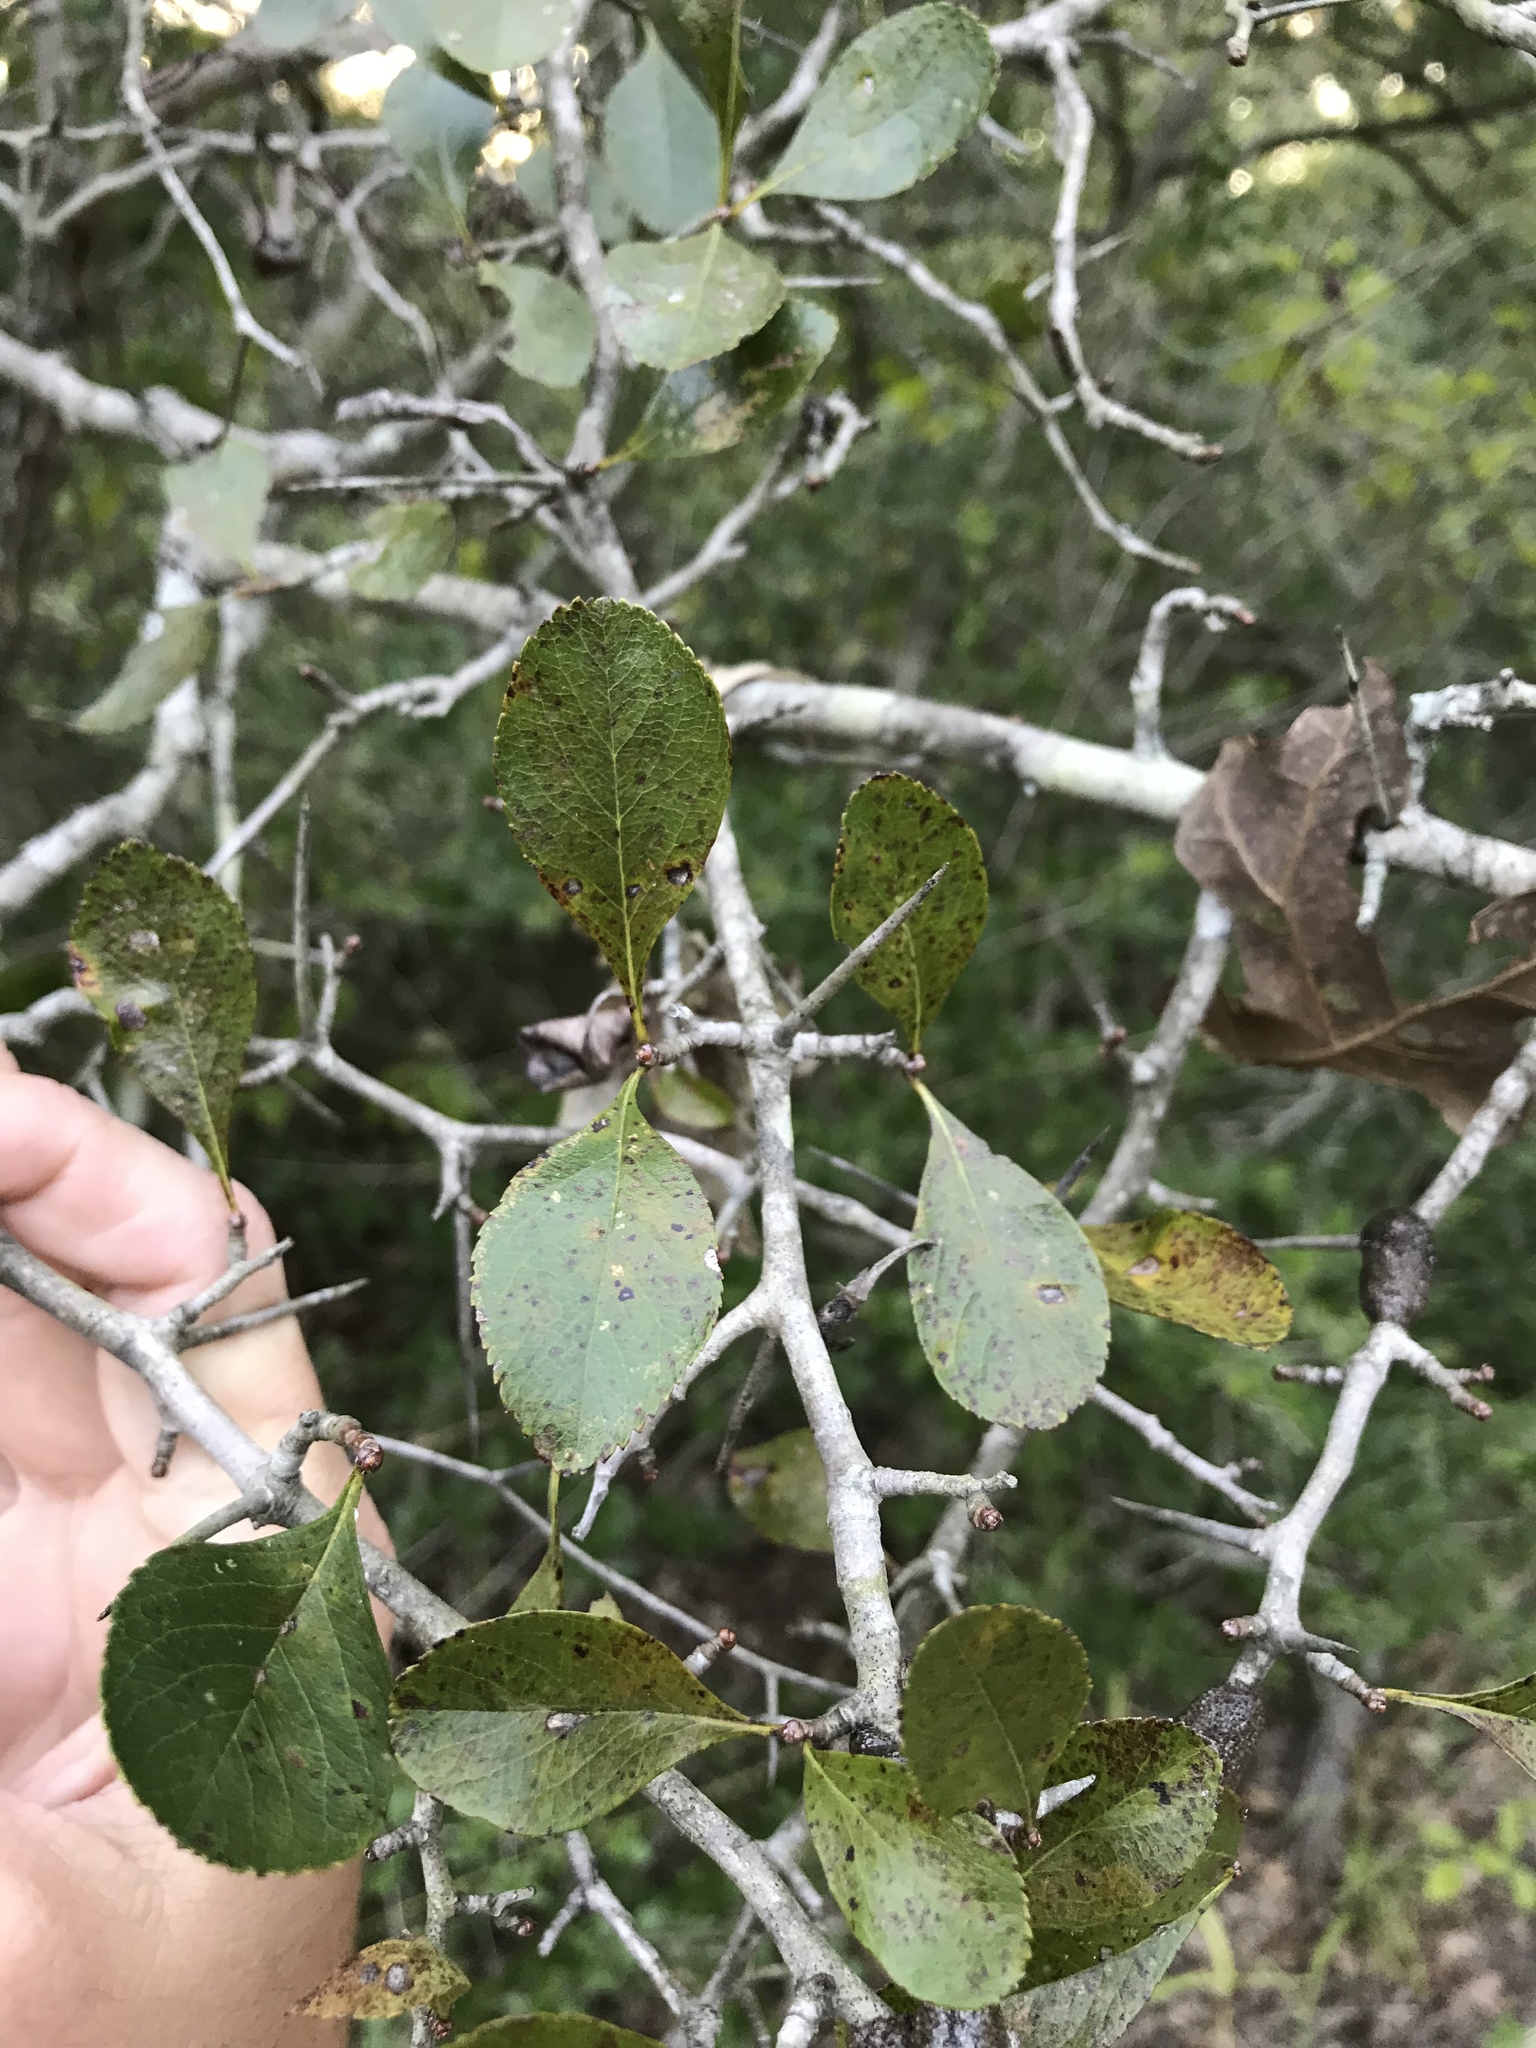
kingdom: Plantae
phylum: Tracheophyta
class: Magnoliopsida
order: Rosales
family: Rosaceae
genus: Crataegus
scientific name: Crataegus crus-galli
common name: Cockspurthorn
